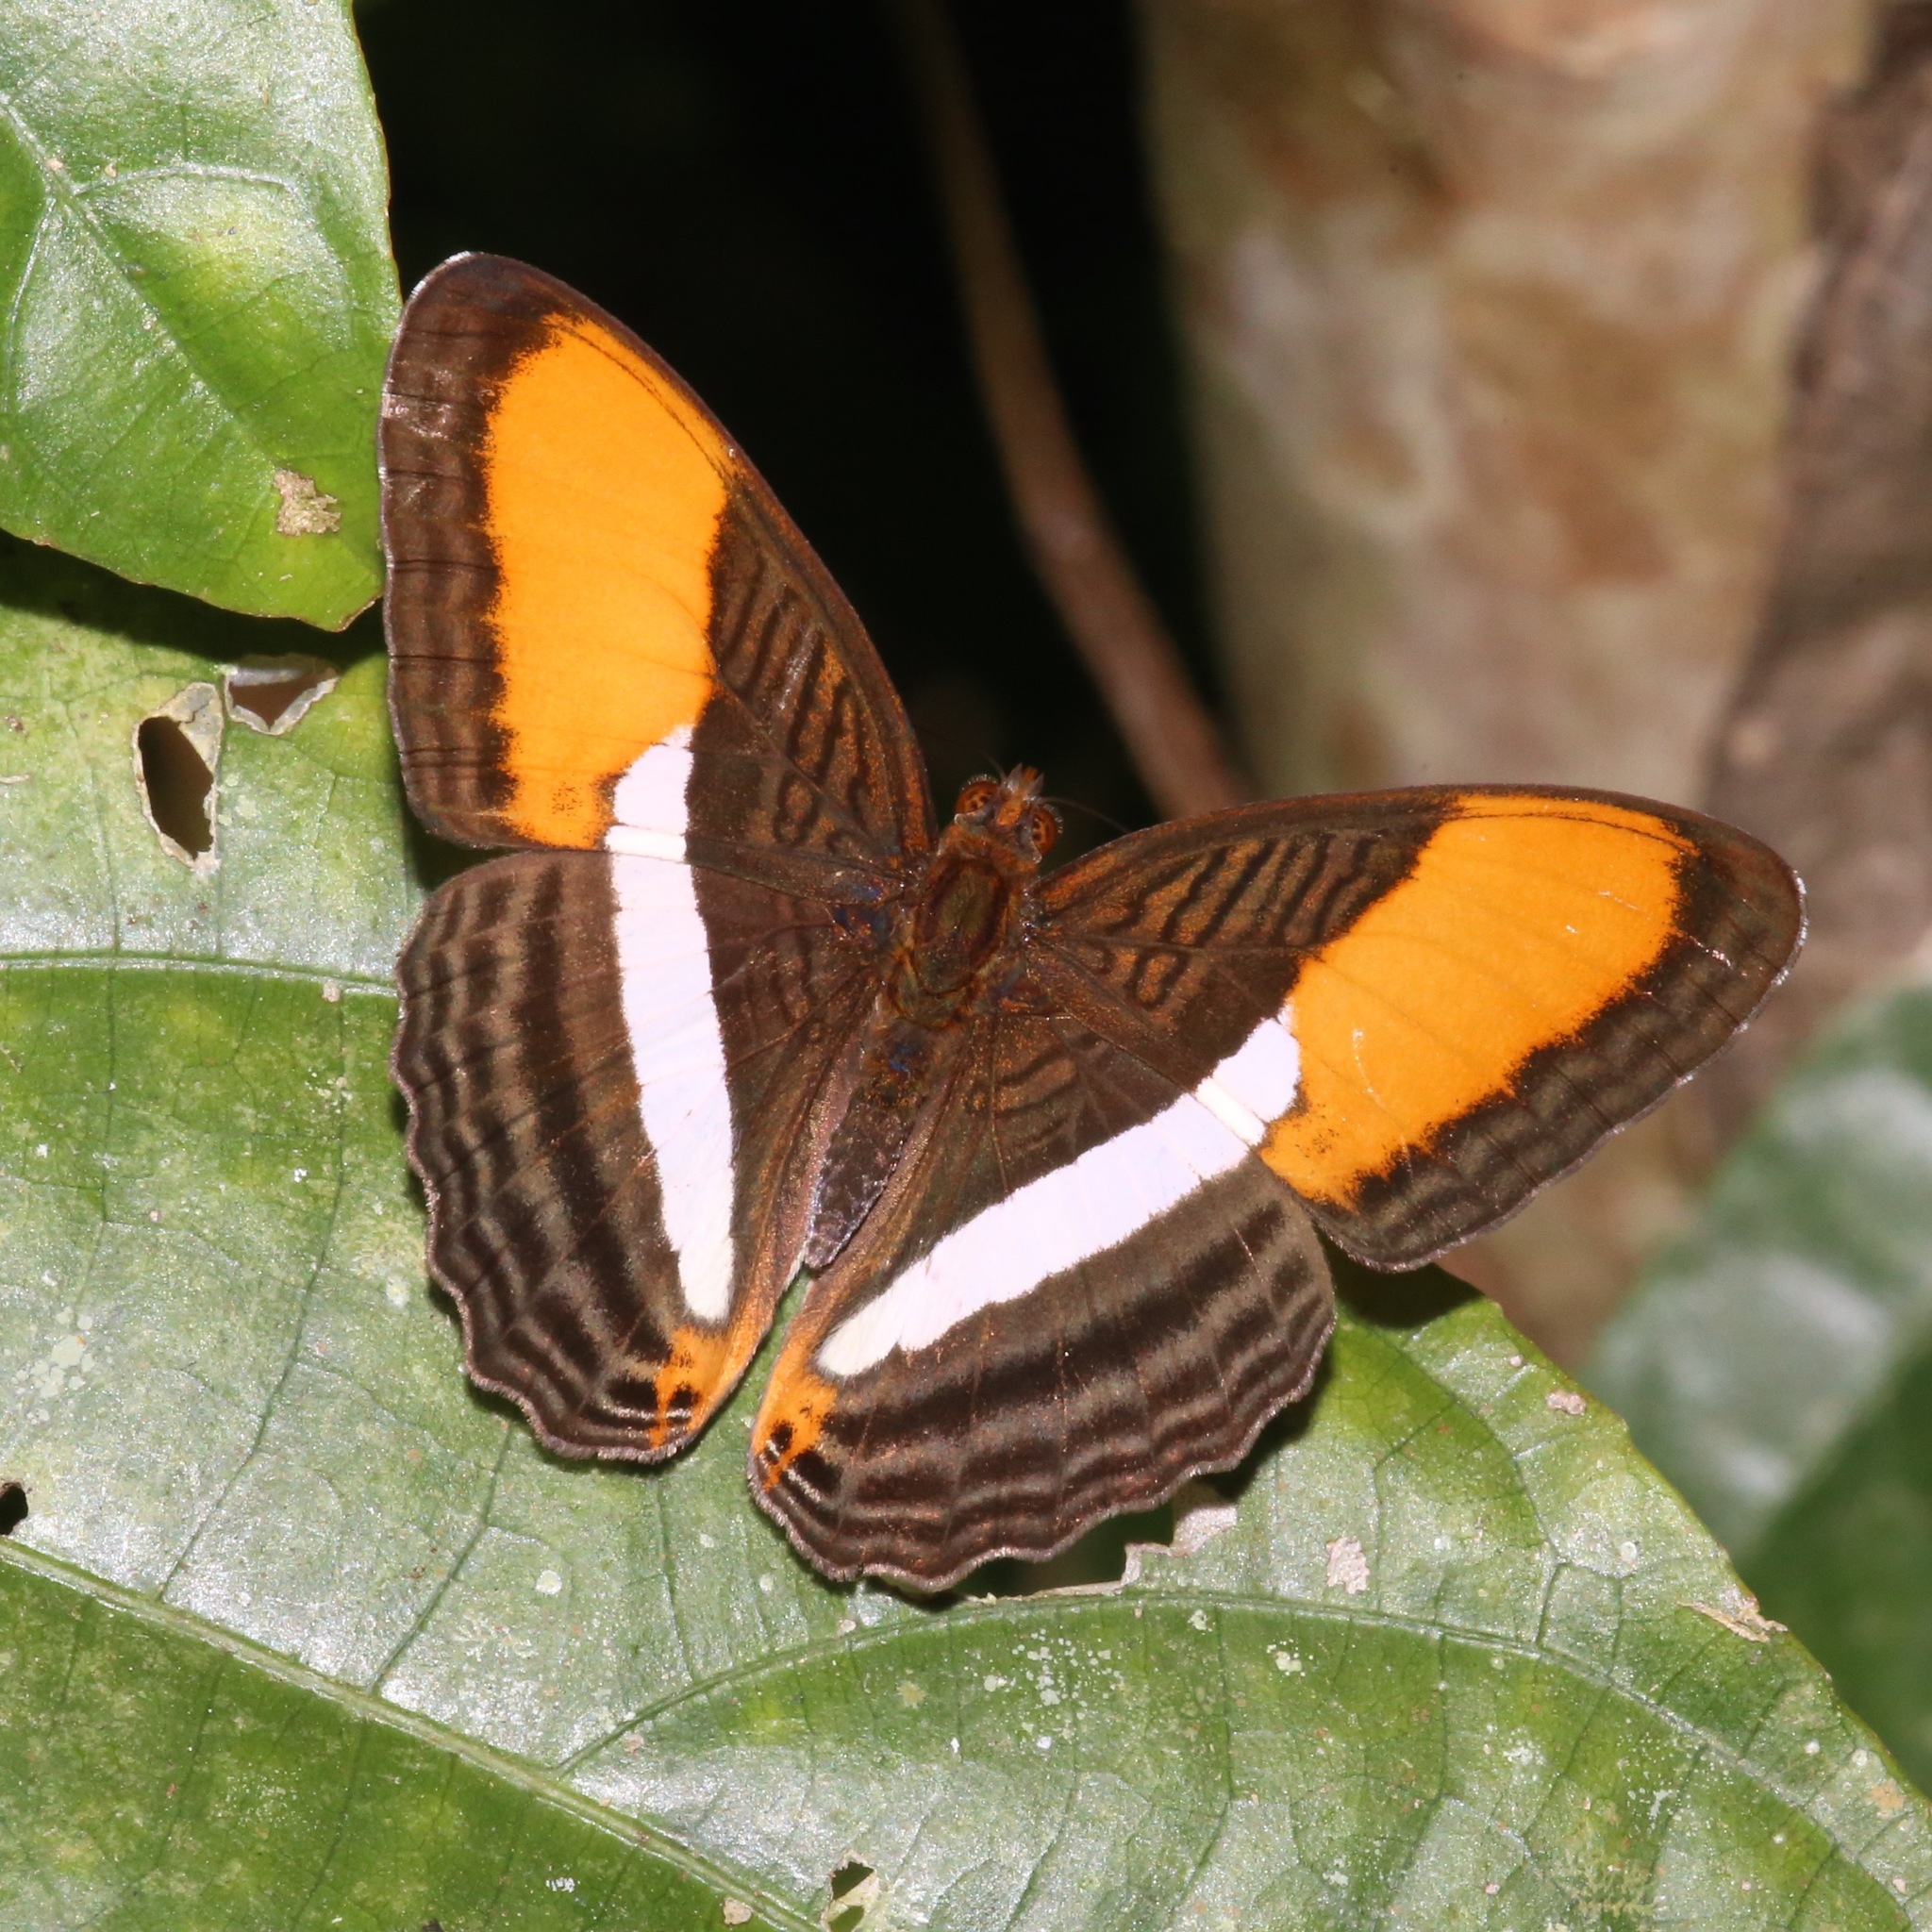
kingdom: Animalia
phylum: Arthropoda
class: Insecta
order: Lepidoptera
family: Nymphalidae
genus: Limenitis
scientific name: Limenitis cytherea
